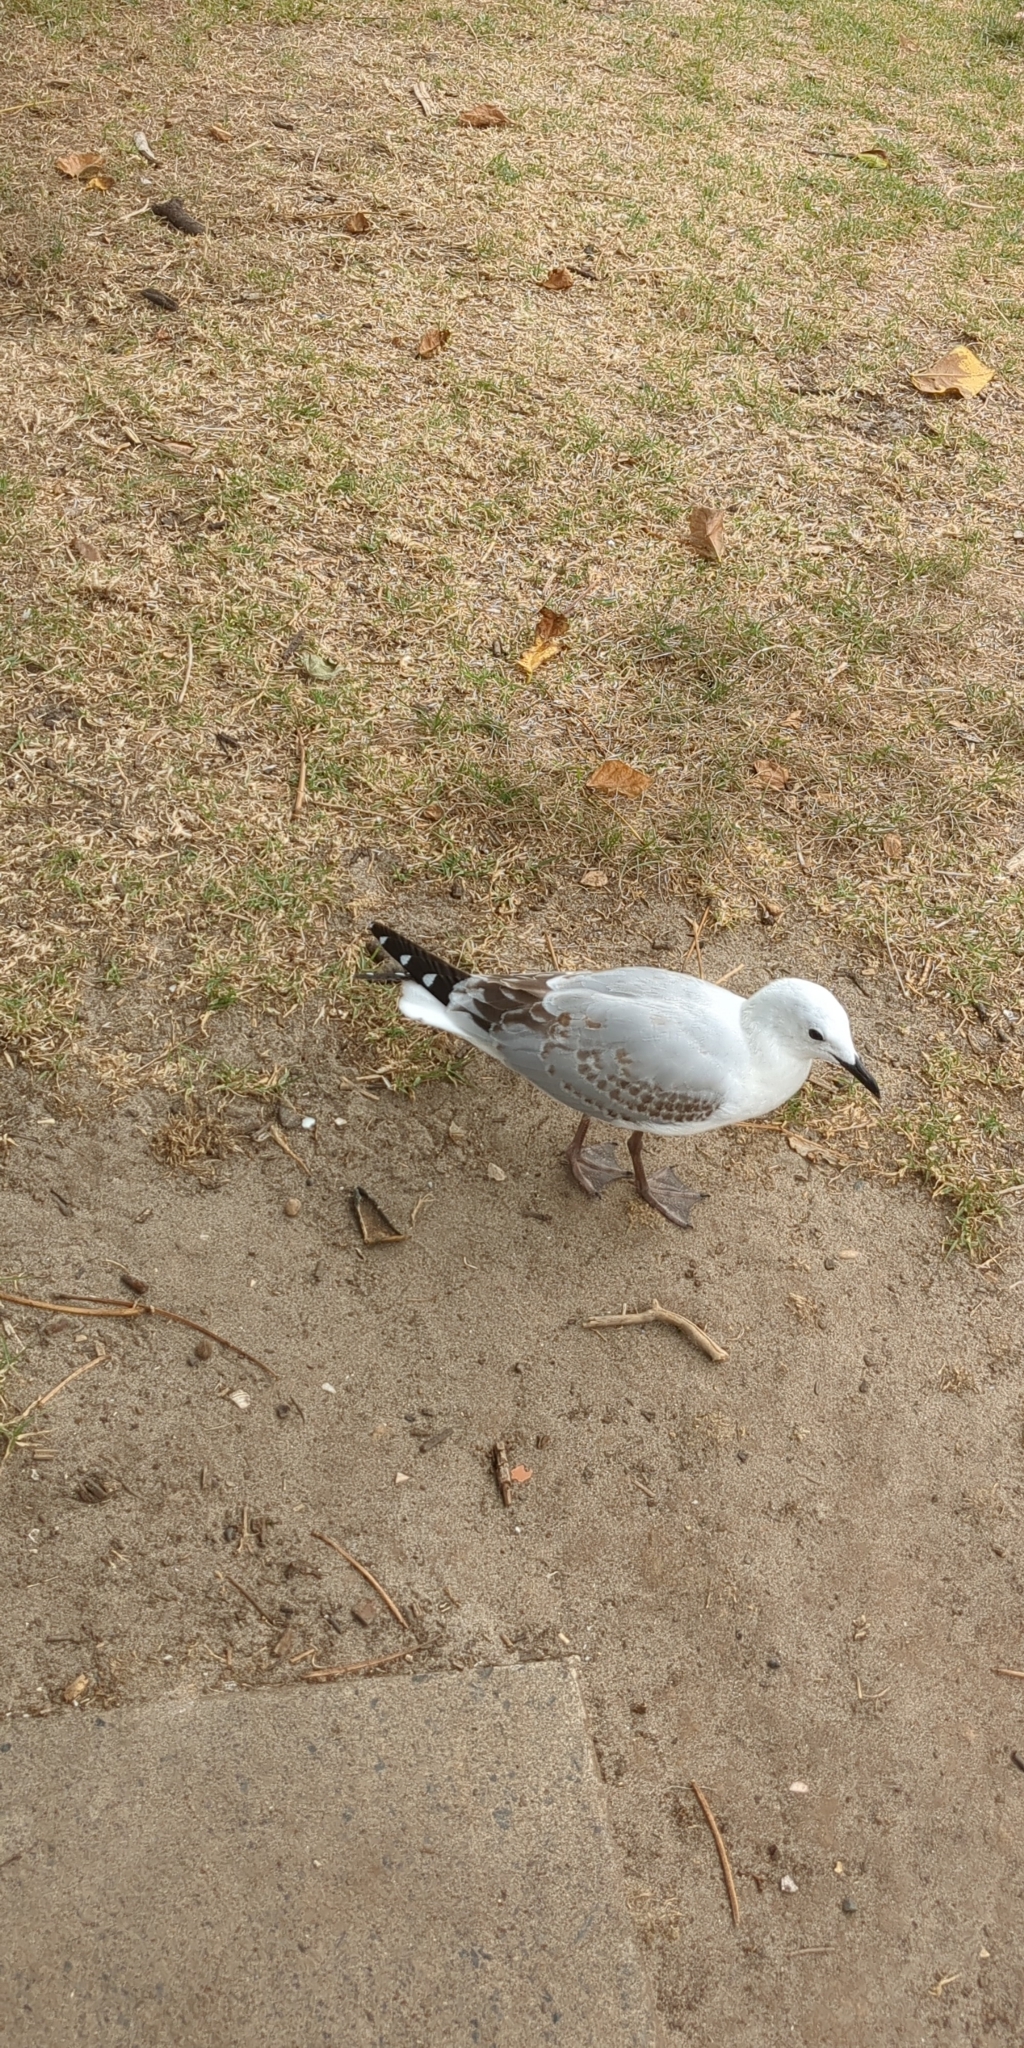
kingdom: Animalia
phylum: Chordata
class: Aves
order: Charadriiformes
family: Laridae
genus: Chroicocephalus
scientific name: Chroicocephalus novaehollandiae
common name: Silver gull
